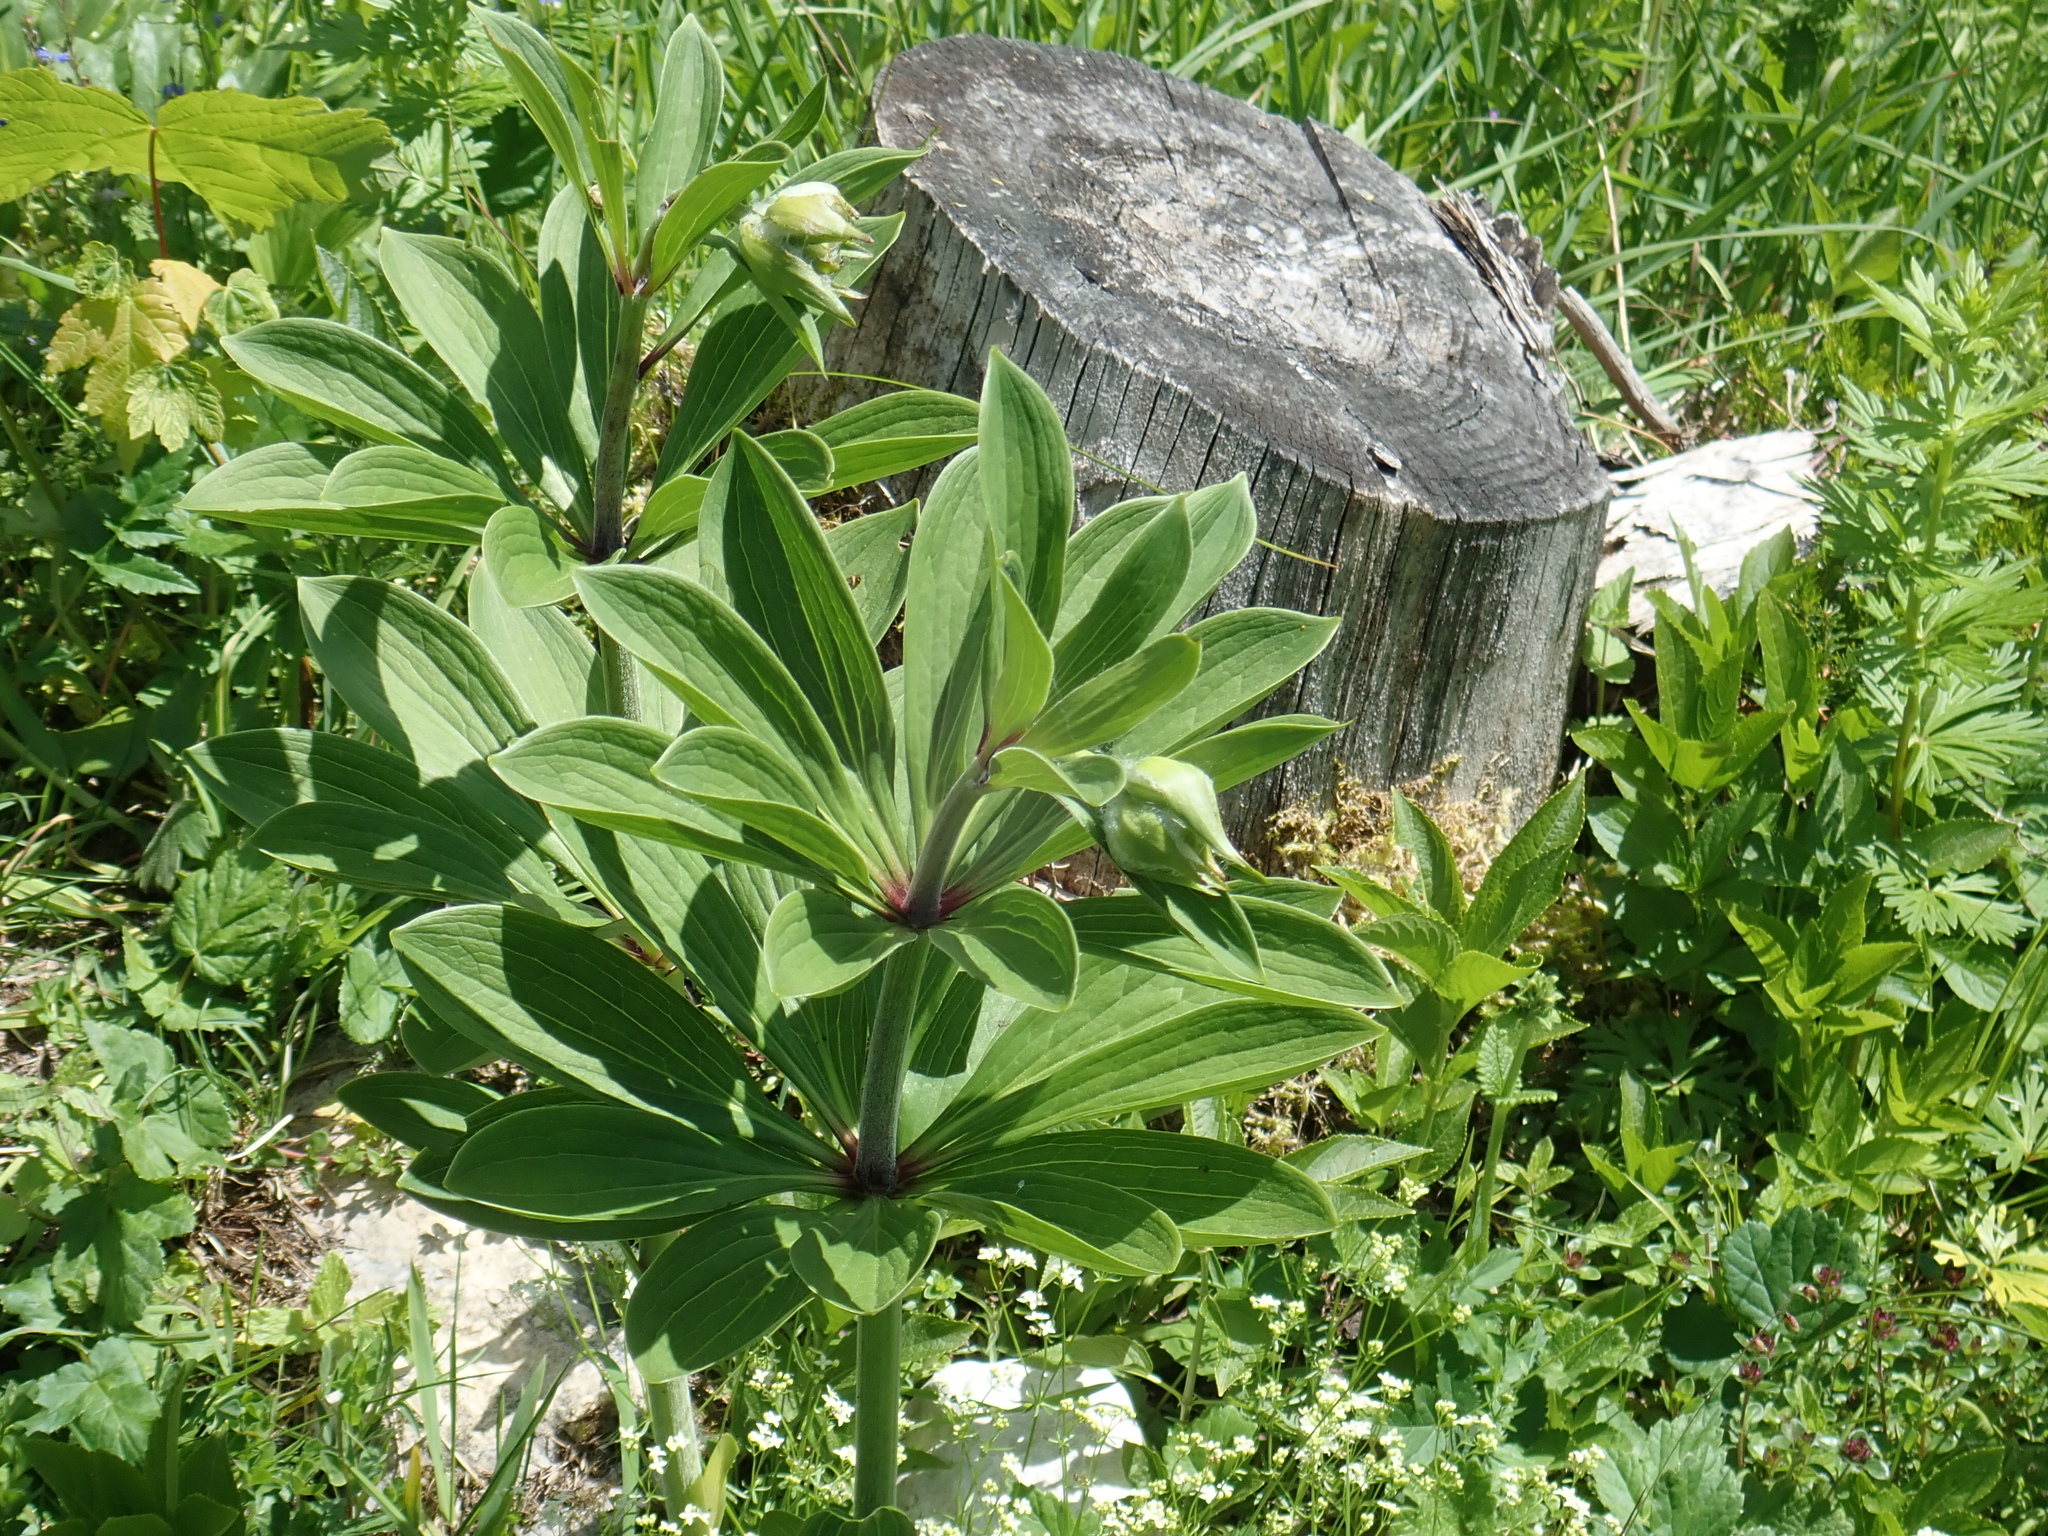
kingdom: Plantae
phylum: Tracheophyta
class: Liliopsida
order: Liliales
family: Liliaceae
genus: Lilium
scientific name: Lilium martagon
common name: Martagon lily
